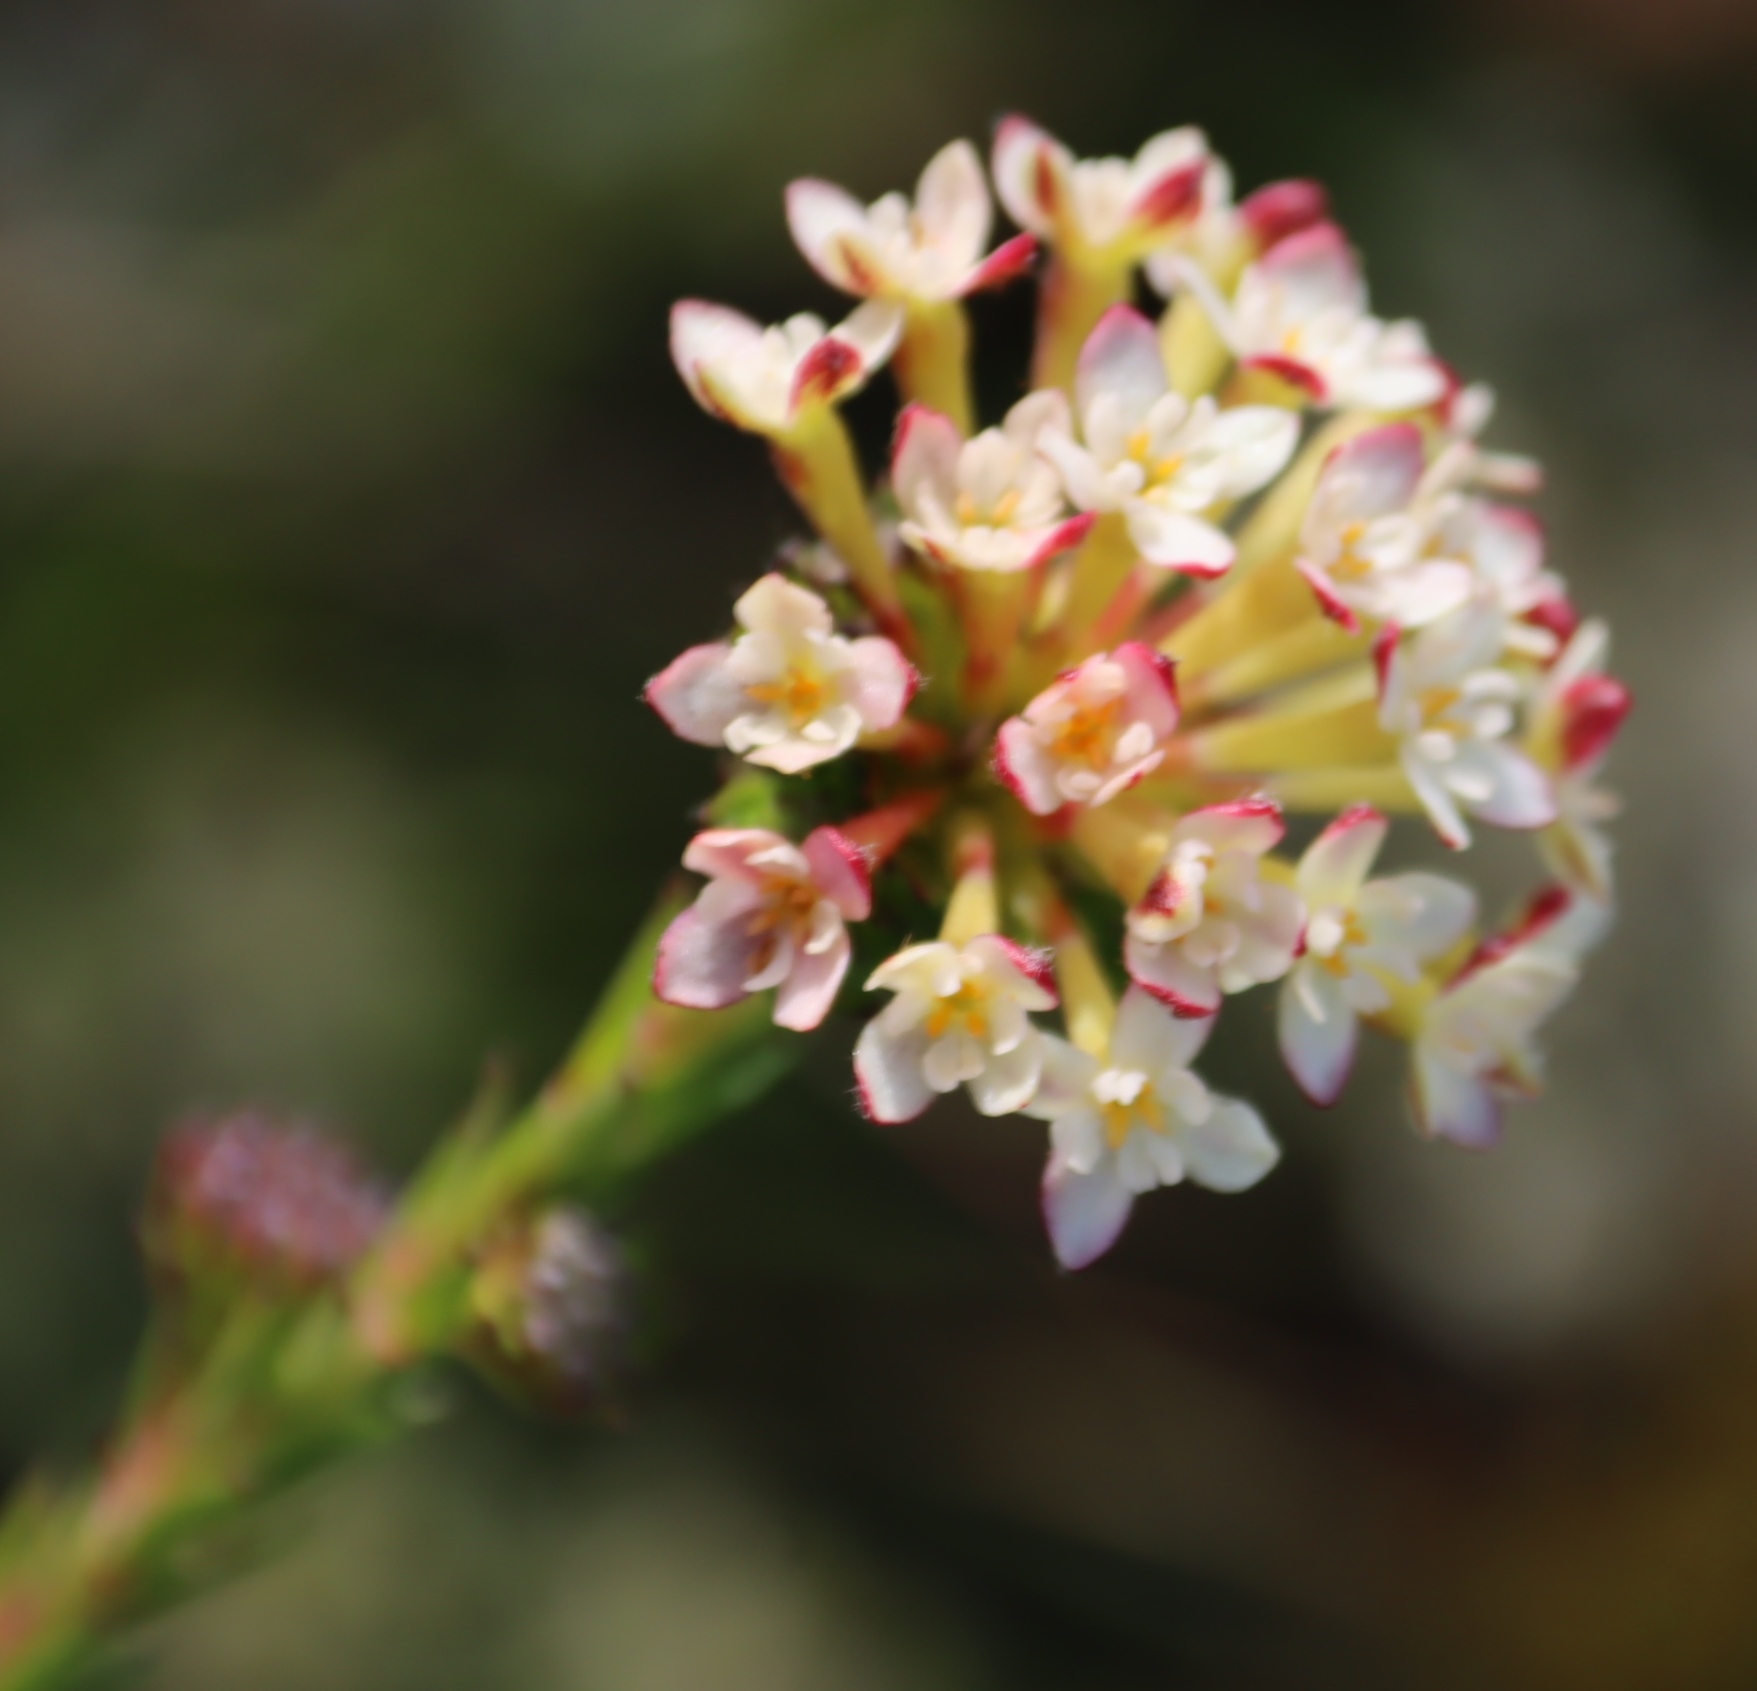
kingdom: Plantae
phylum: Tracheophyta
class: Magnoliopsida
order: Malvales
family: Thymelaeaceae
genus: Gnidia
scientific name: Gnidia squarrosa
